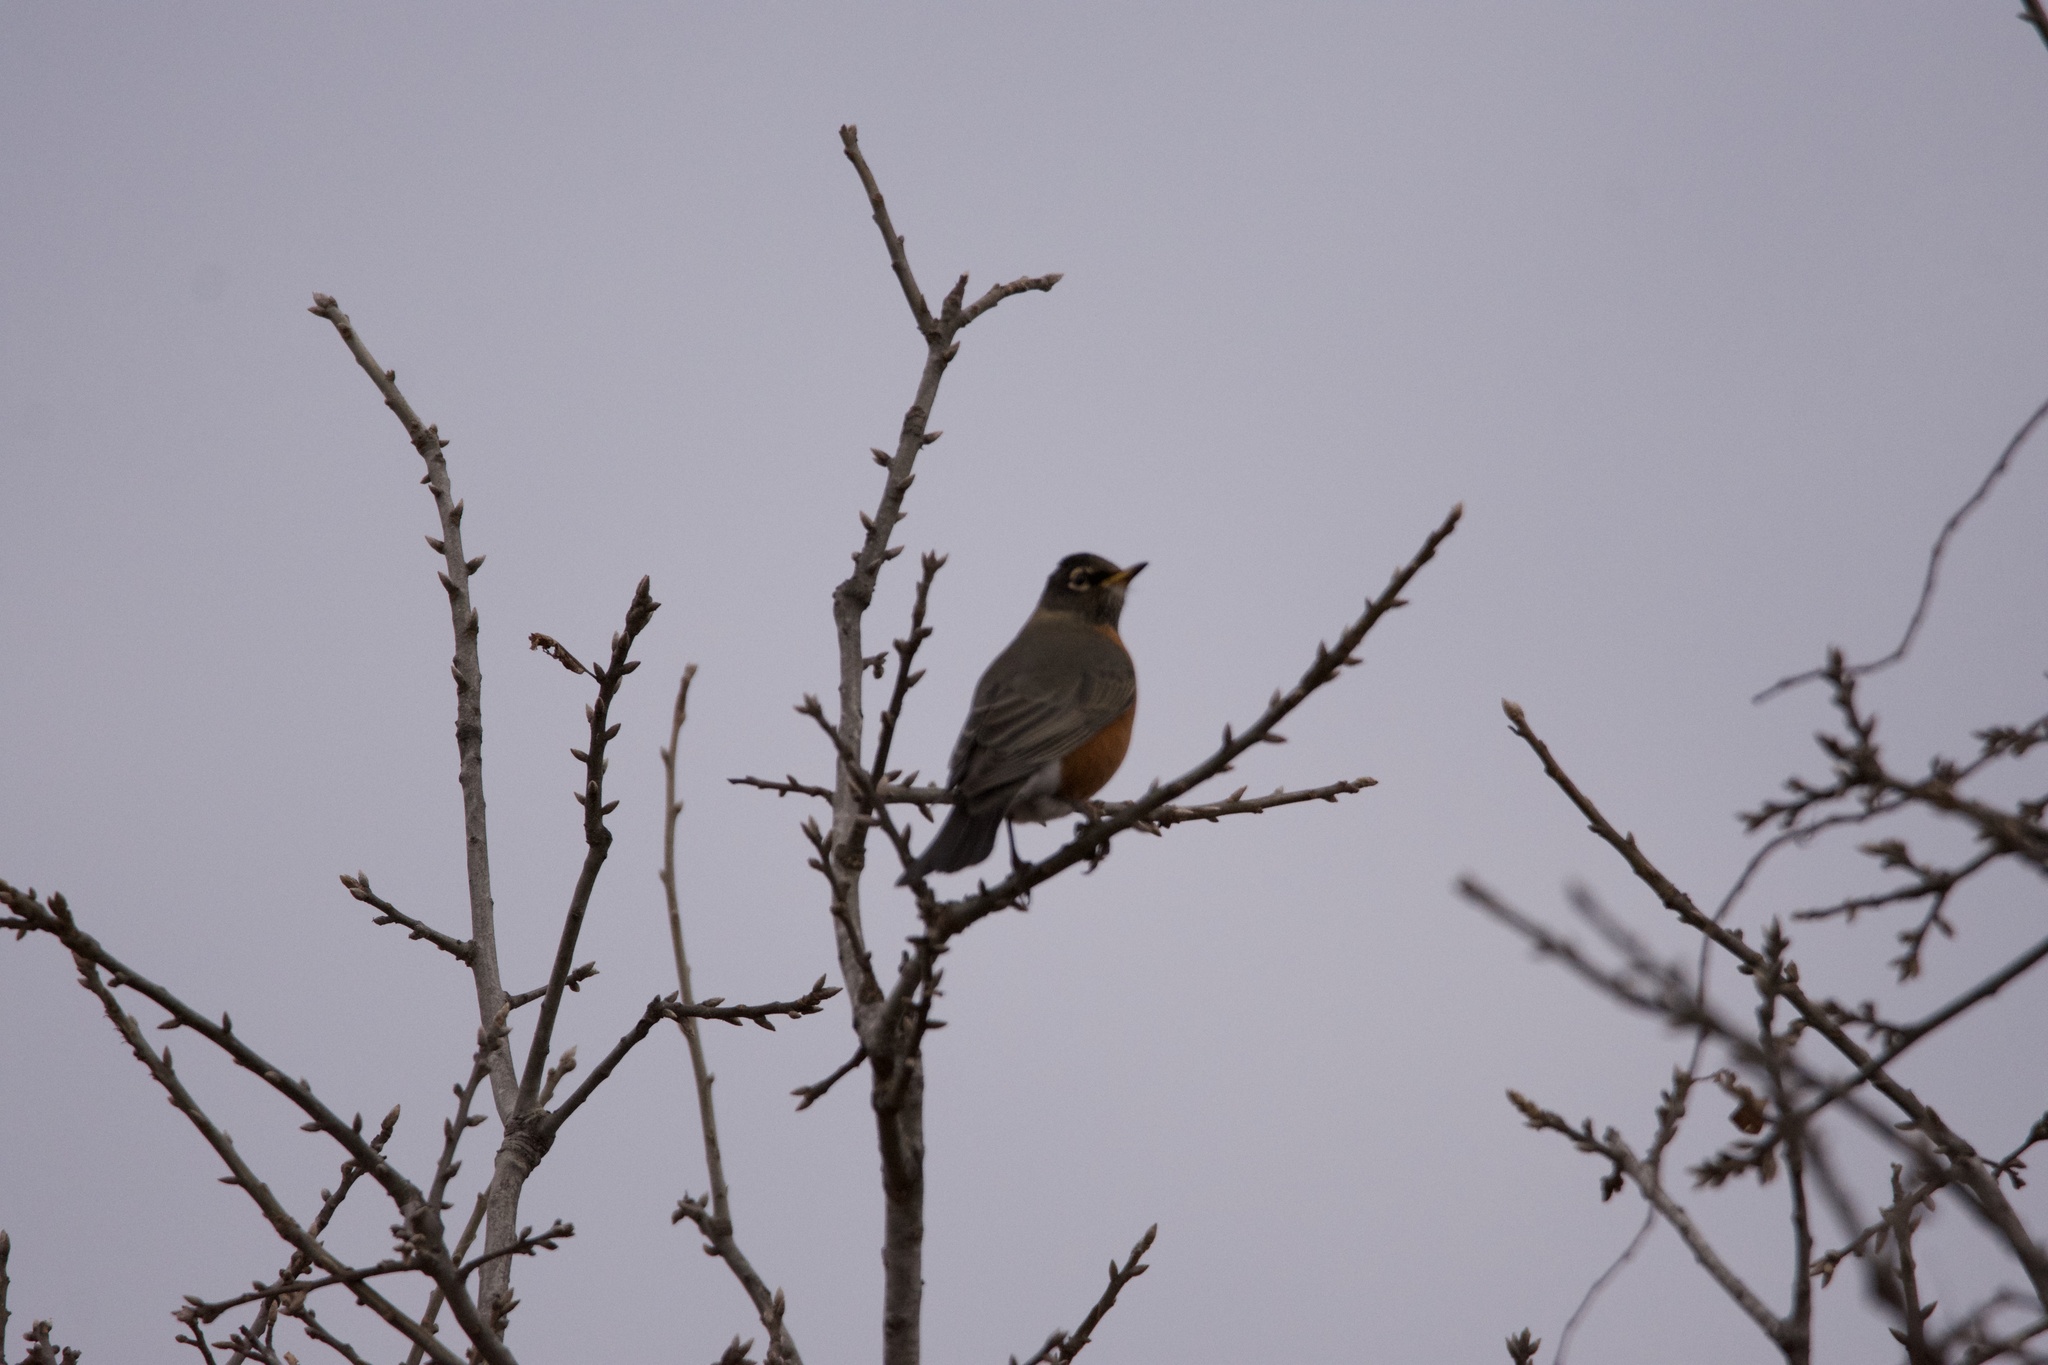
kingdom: Animalia
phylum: Chordata
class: Aves
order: Passeriformes
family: Turdidae
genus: Turdus
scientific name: Turdus migratorius
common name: American robin
